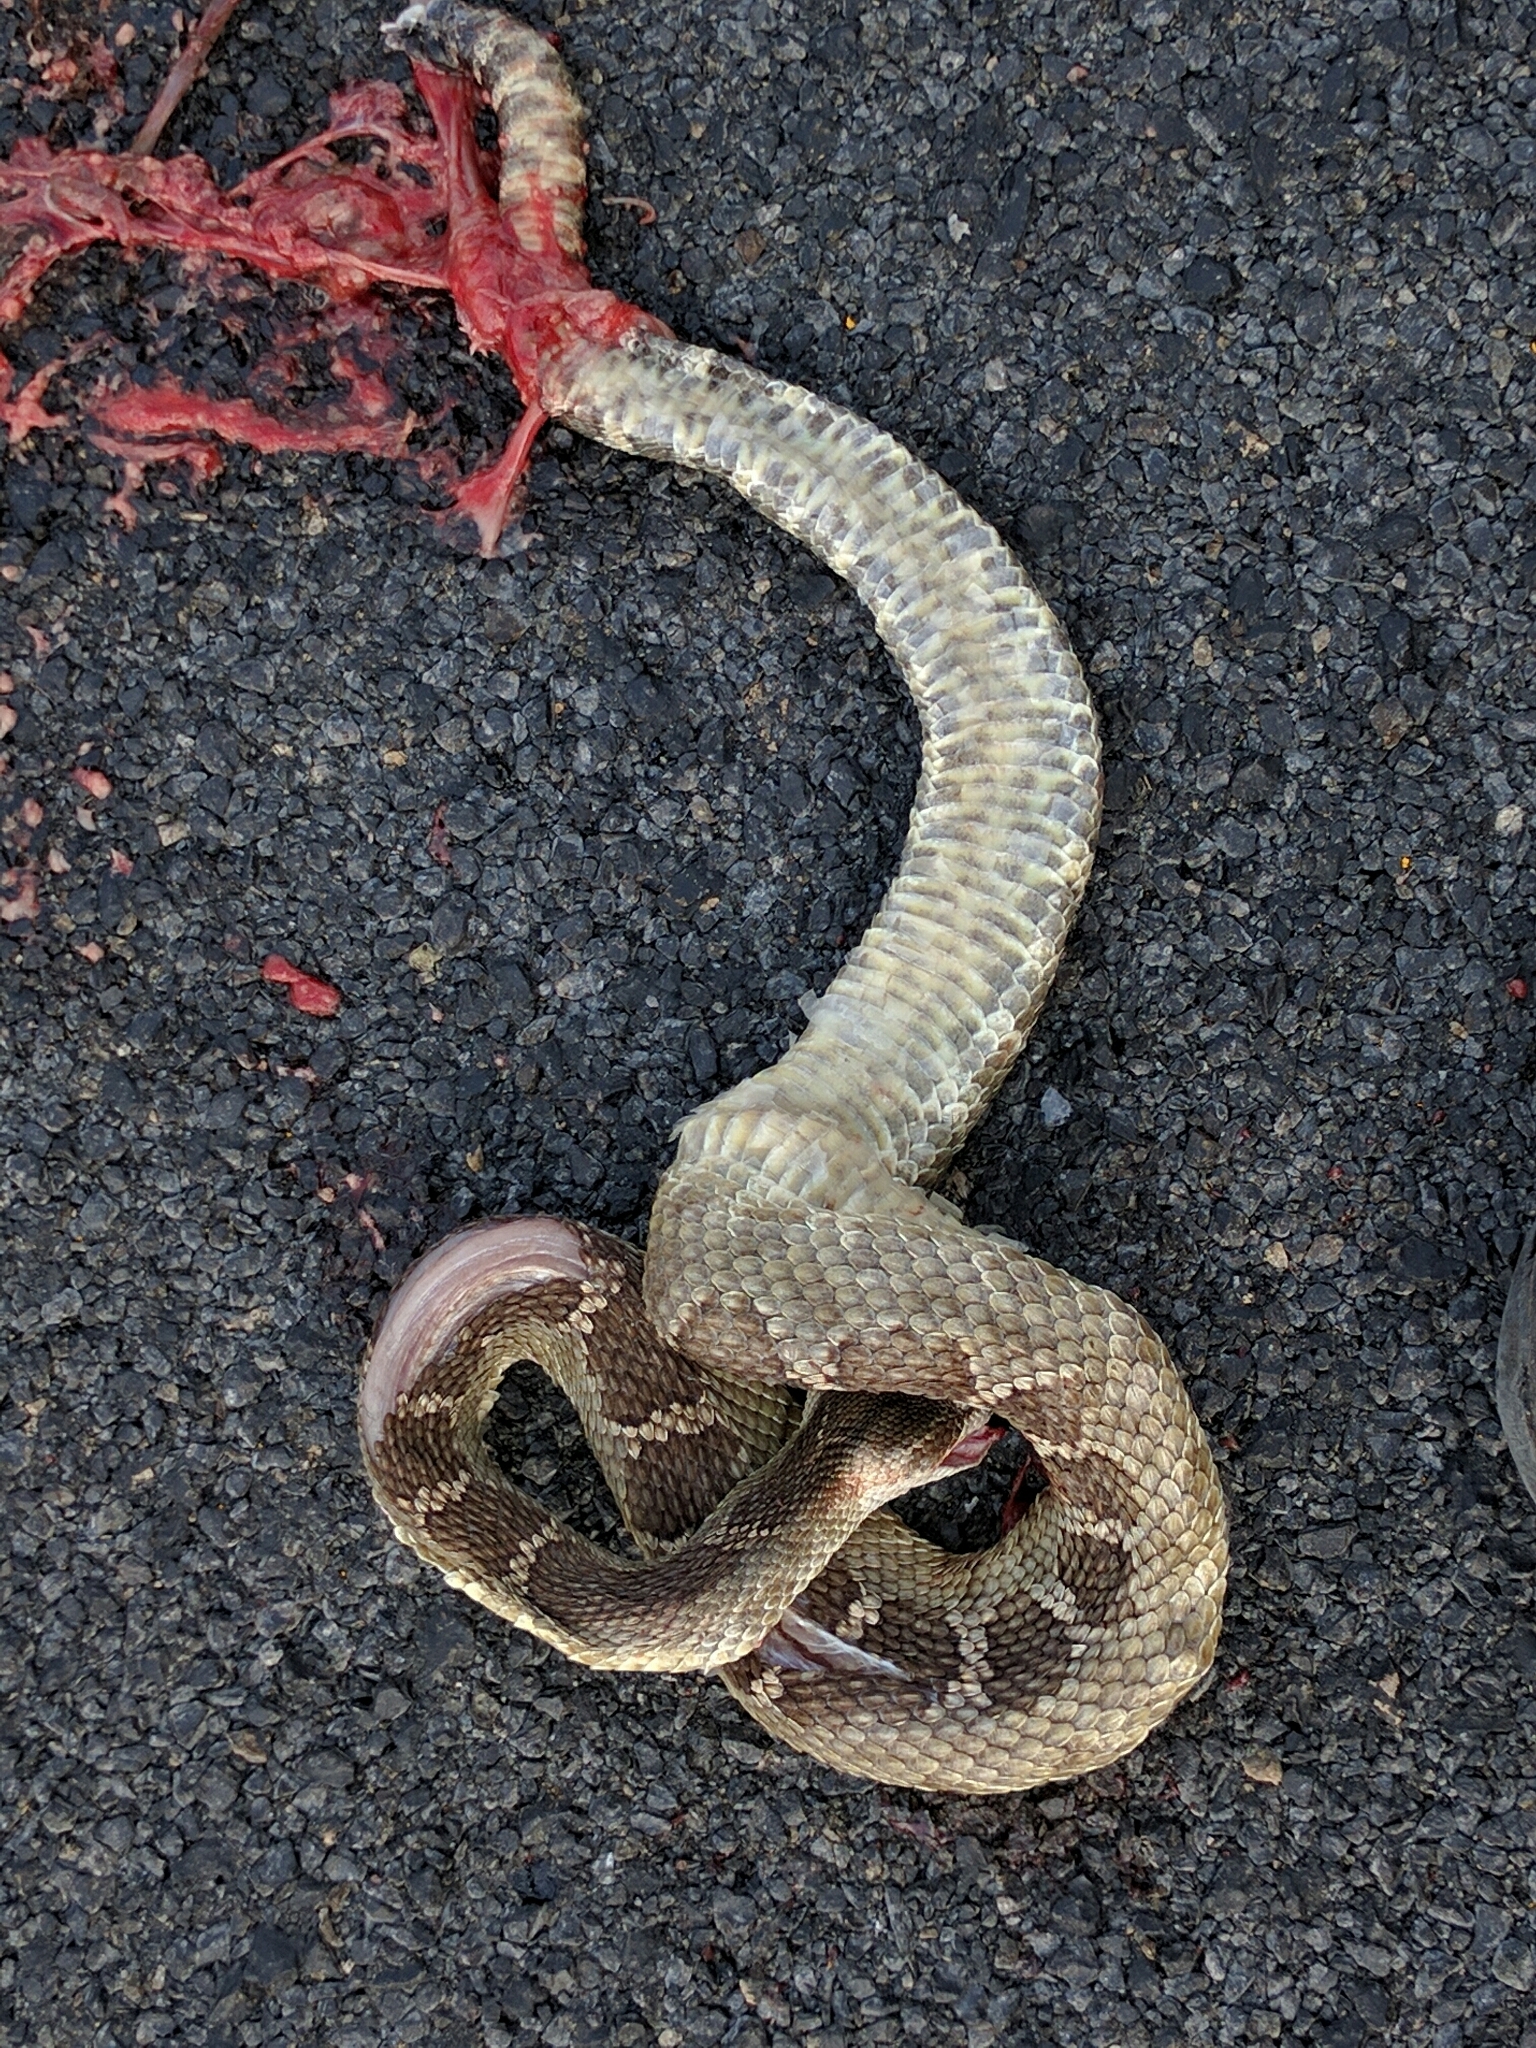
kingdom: Animalia
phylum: Chordata
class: Squamata
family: Viperidae
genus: Crotalus
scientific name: Crotalus oreganus
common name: Abyssus
